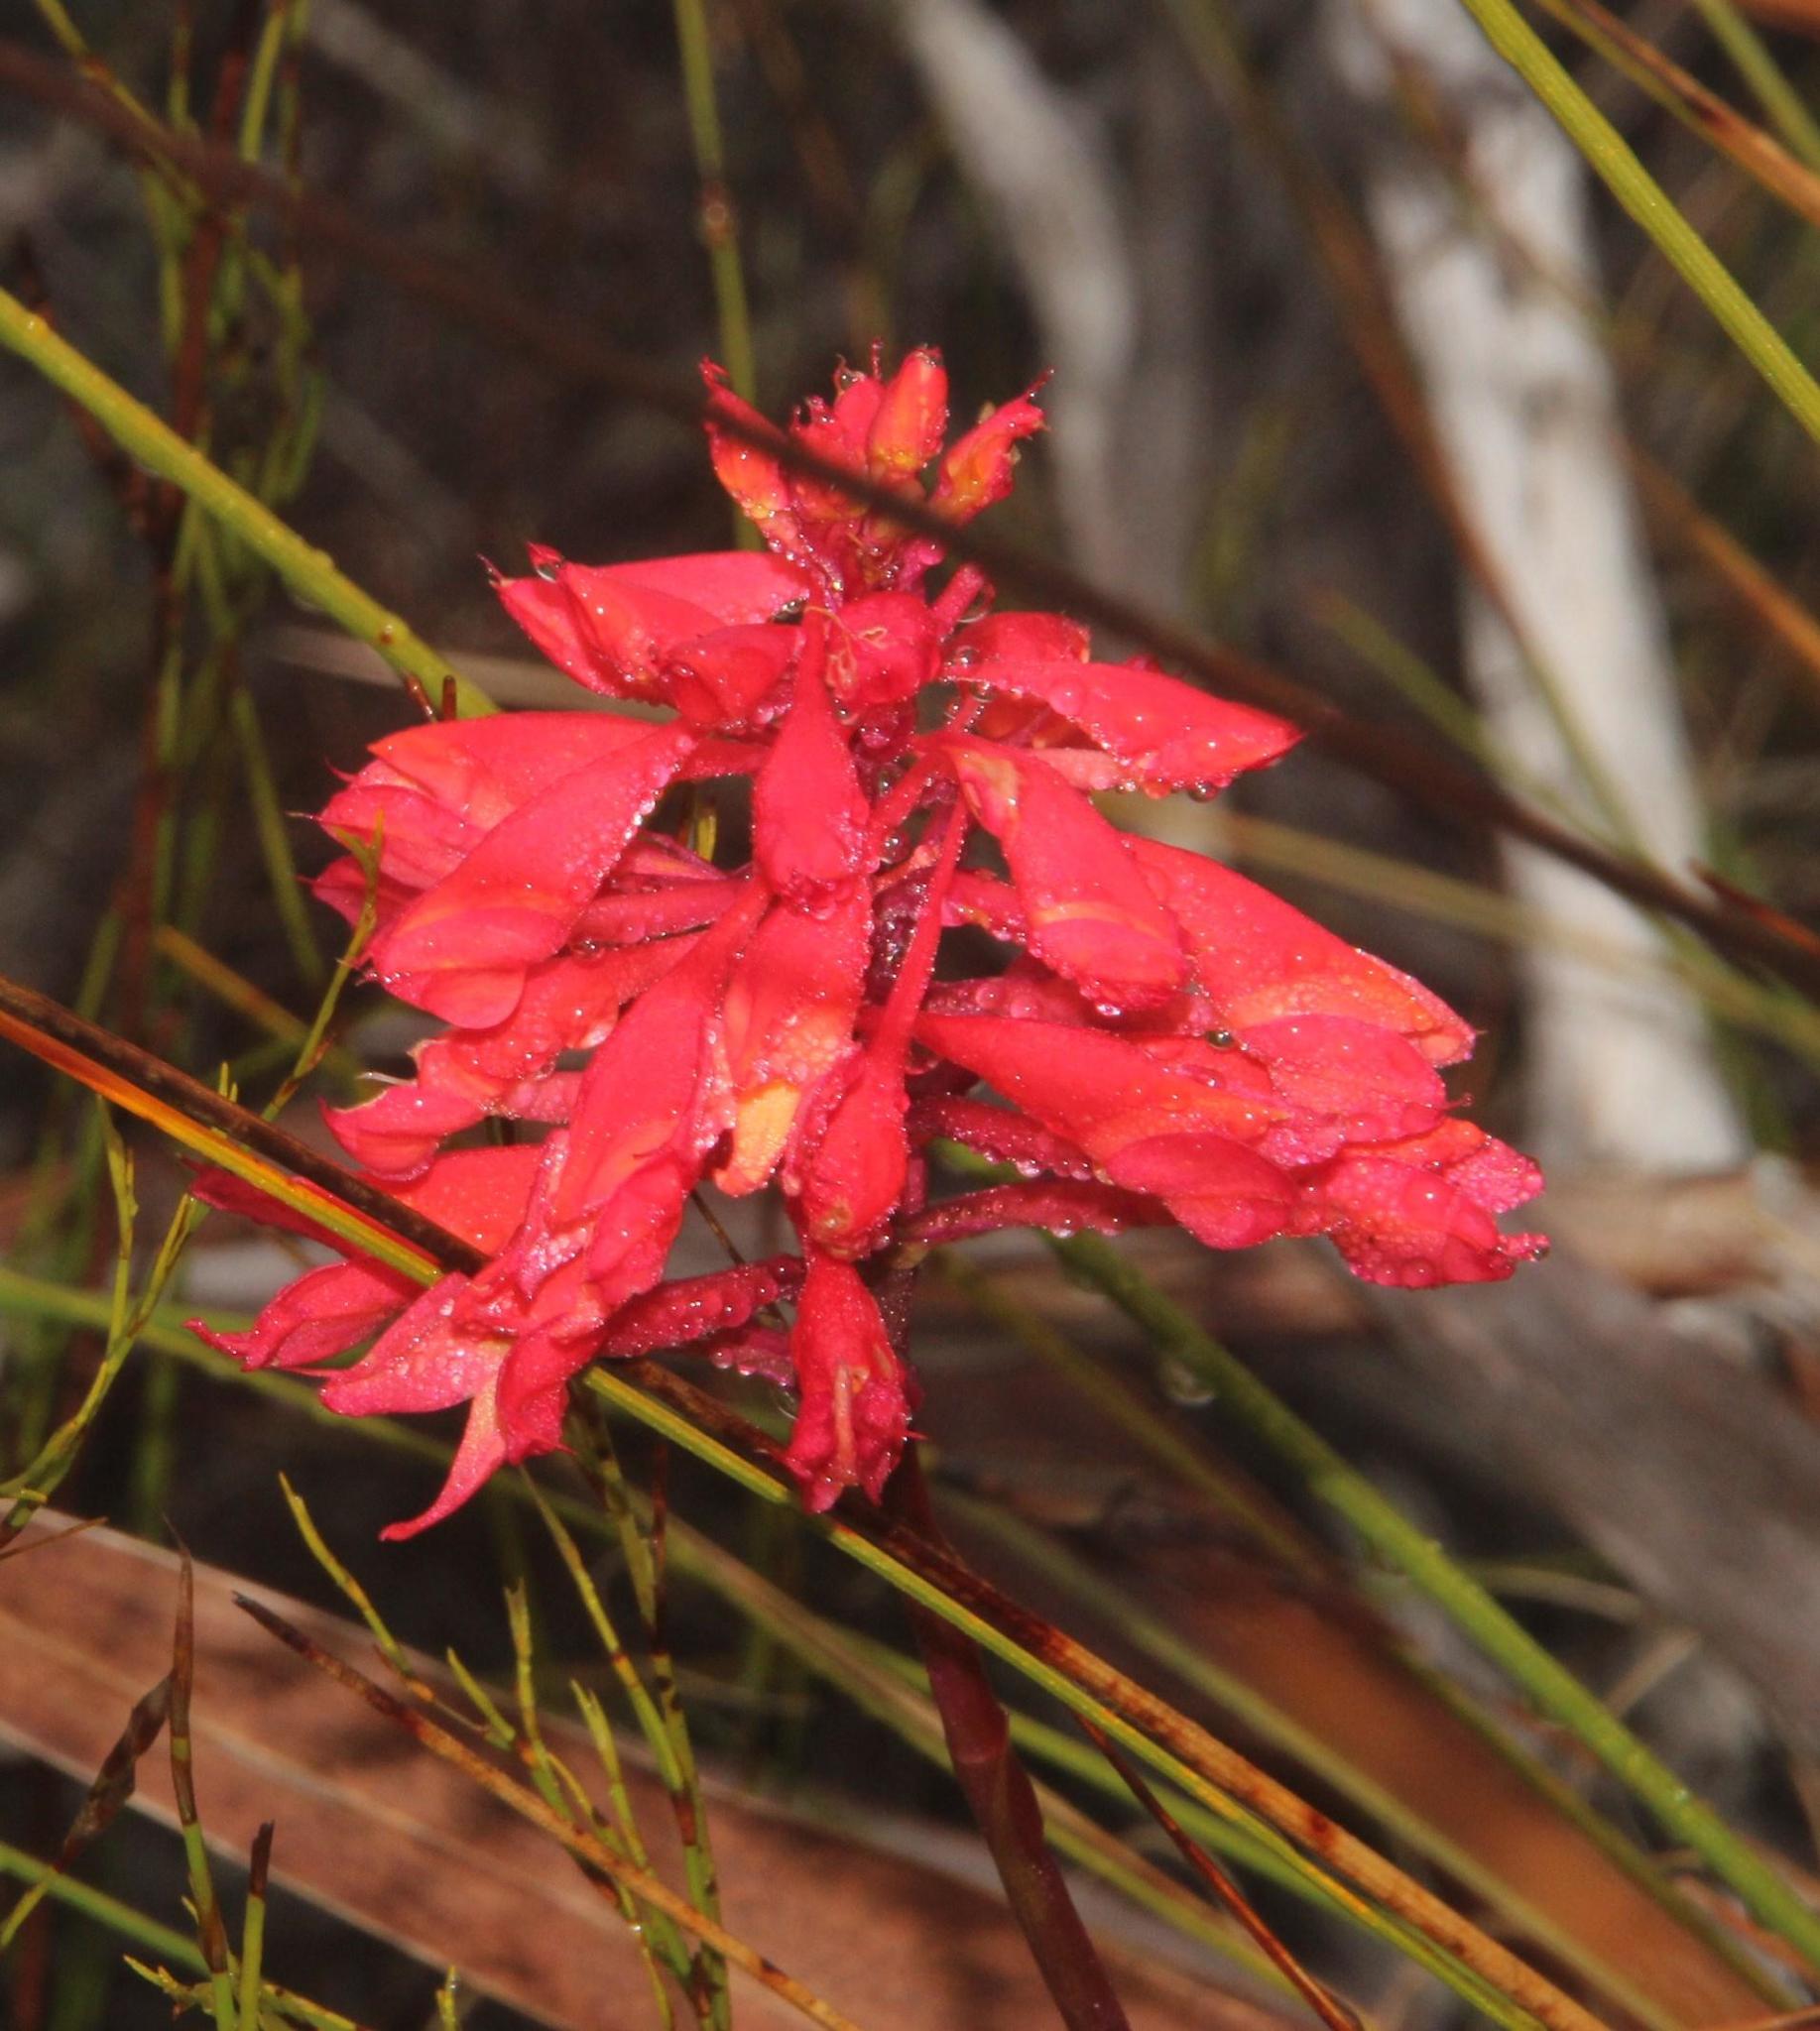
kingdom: Plantae
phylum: Tracheophyta
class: Liliopsida
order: Asparagales
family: Orchidaceae
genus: Disa
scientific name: Disa ferruginea
